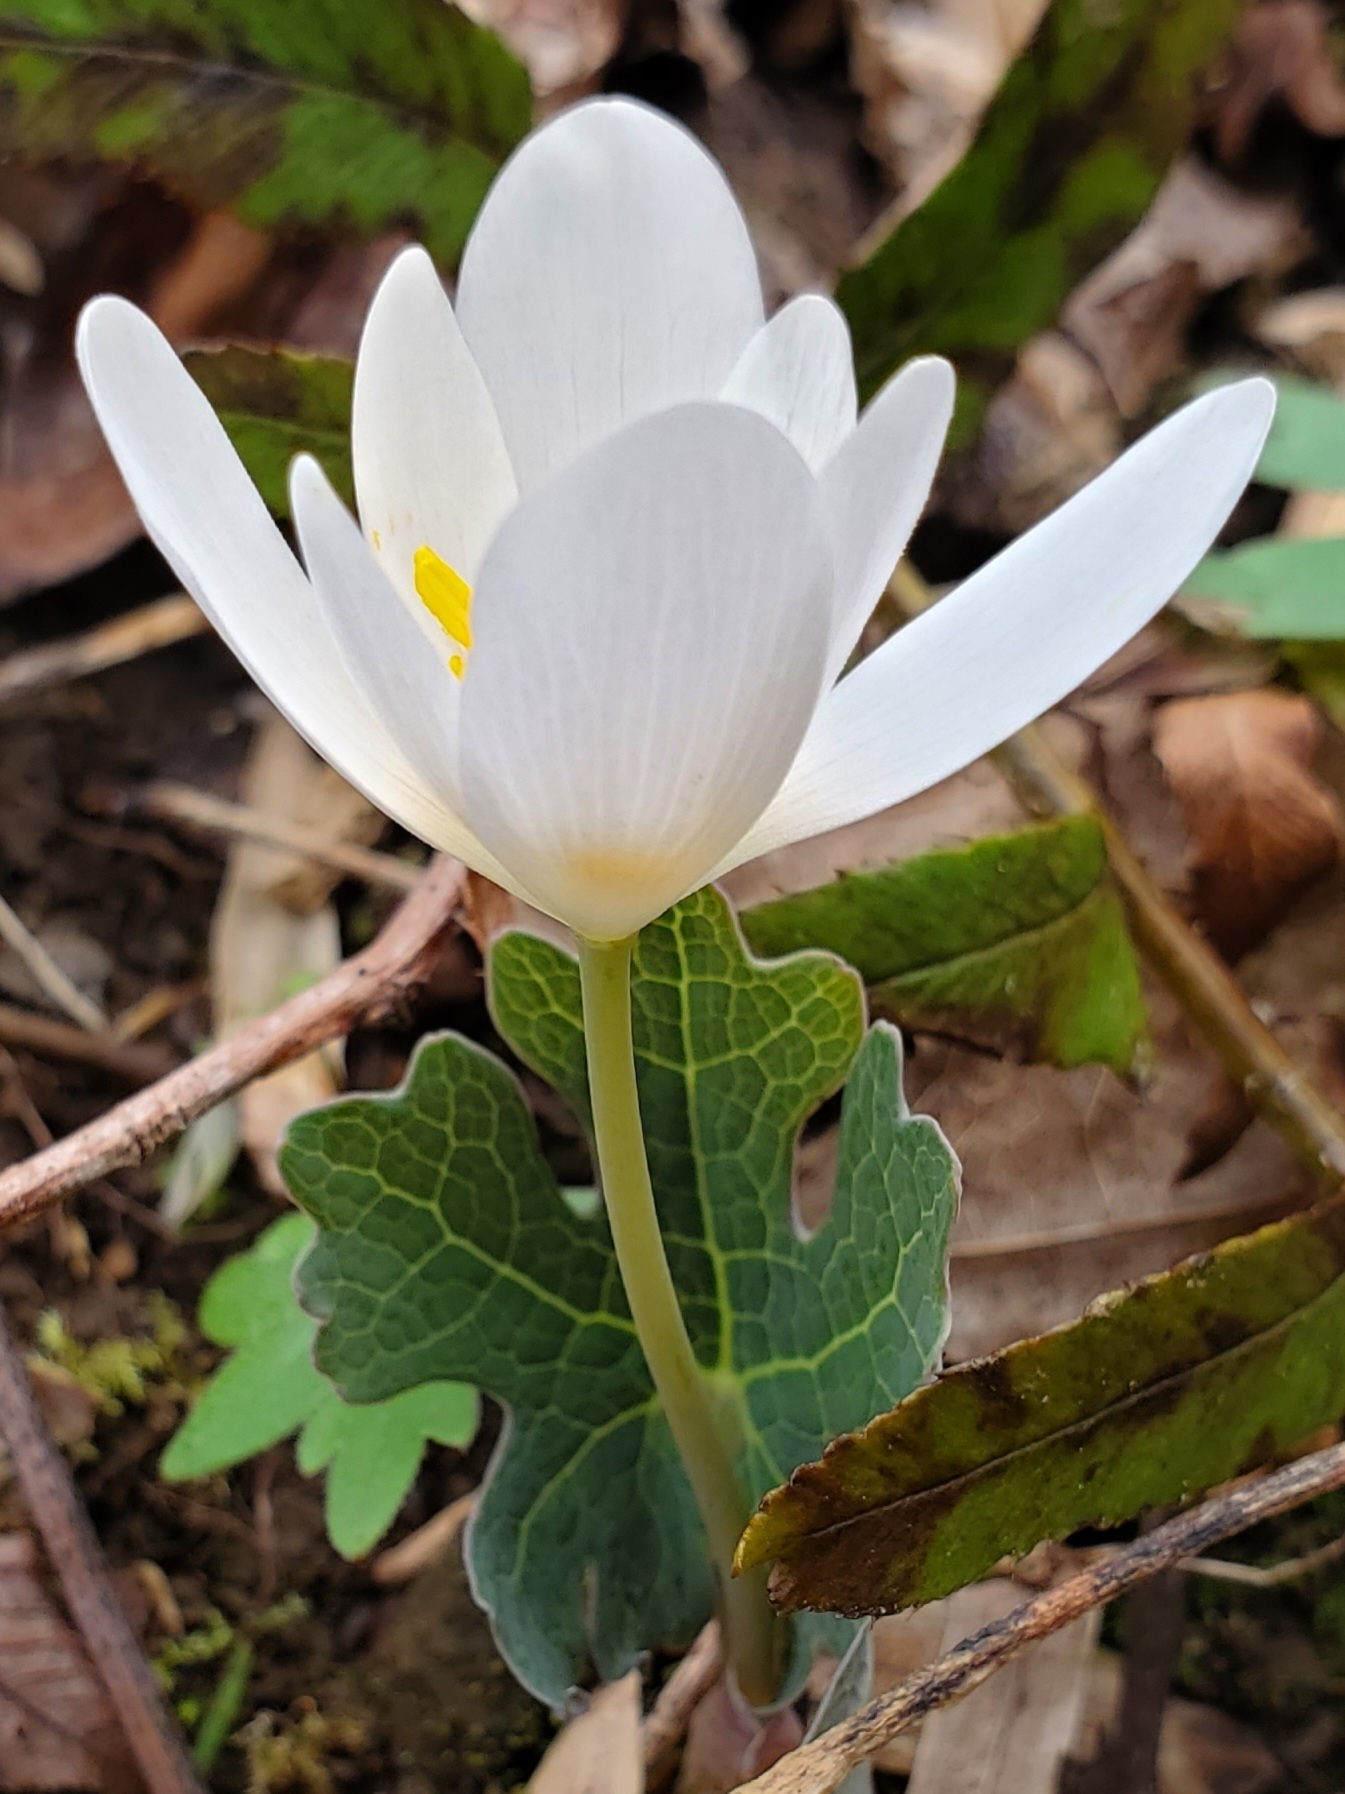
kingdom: Plantae
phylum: Tracheophyta
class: Magnoliopsida
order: Ranunculales
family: Papaveraceae
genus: Sanguinaria
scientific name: Sanguinaria canadensis
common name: Bloodroot
